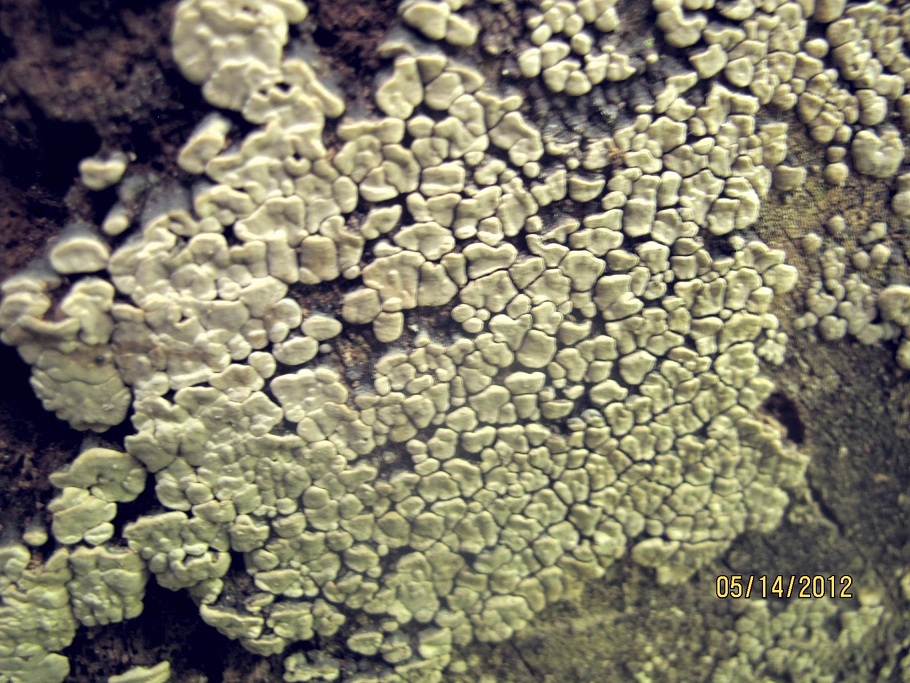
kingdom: Fungi
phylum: Basidiomycota
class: Agaricomycetes
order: Russulales
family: Stereaceae
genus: Xylobolus
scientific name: Xylobolus frustulatus
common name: Ceramic parchment
